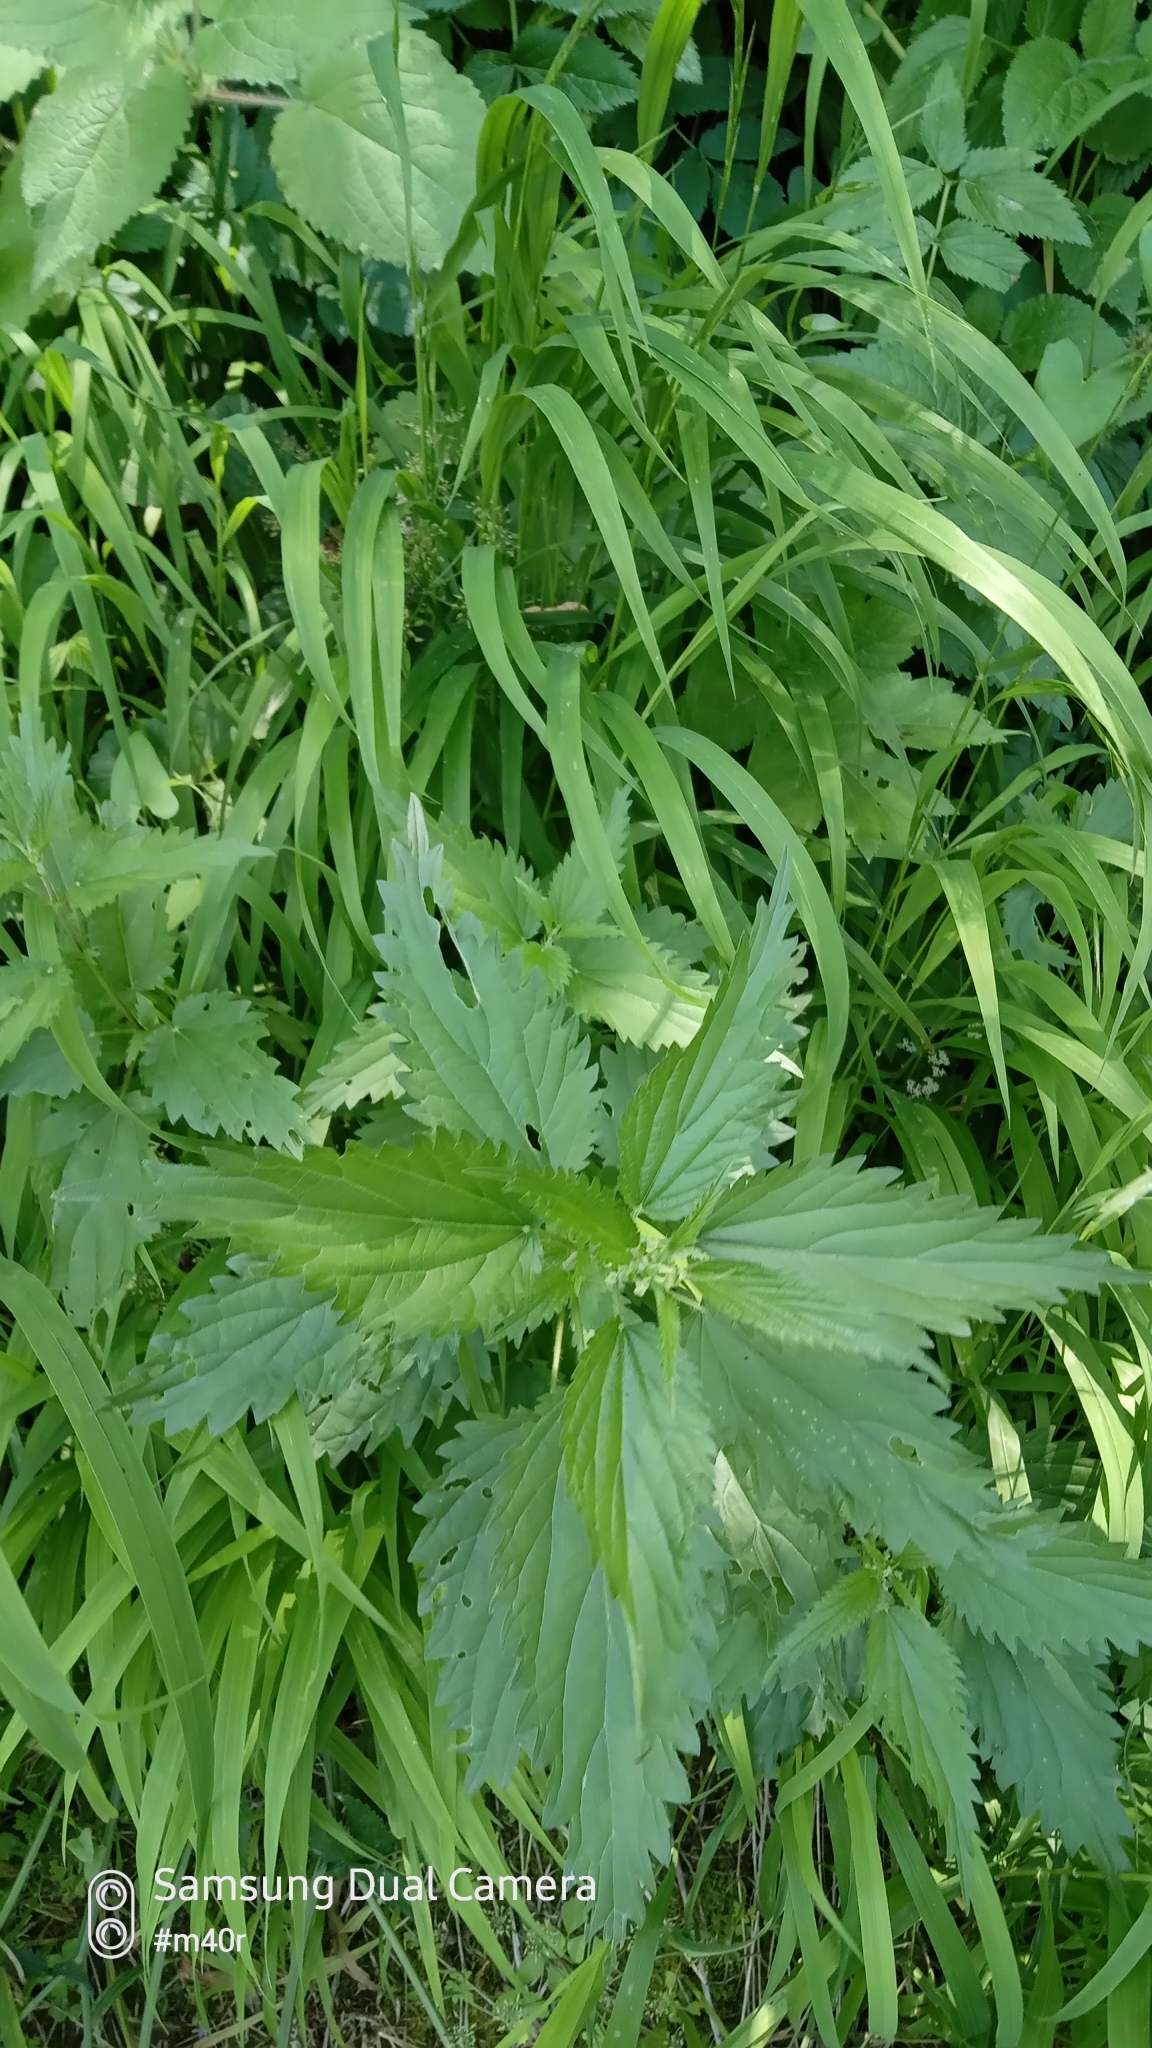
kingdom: Plantae
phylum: Tracheophyta
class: Magnoliopsida
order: Rosales
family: Urticaceae
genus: Urtica
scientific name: Urtica dioica
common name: Common nettle
